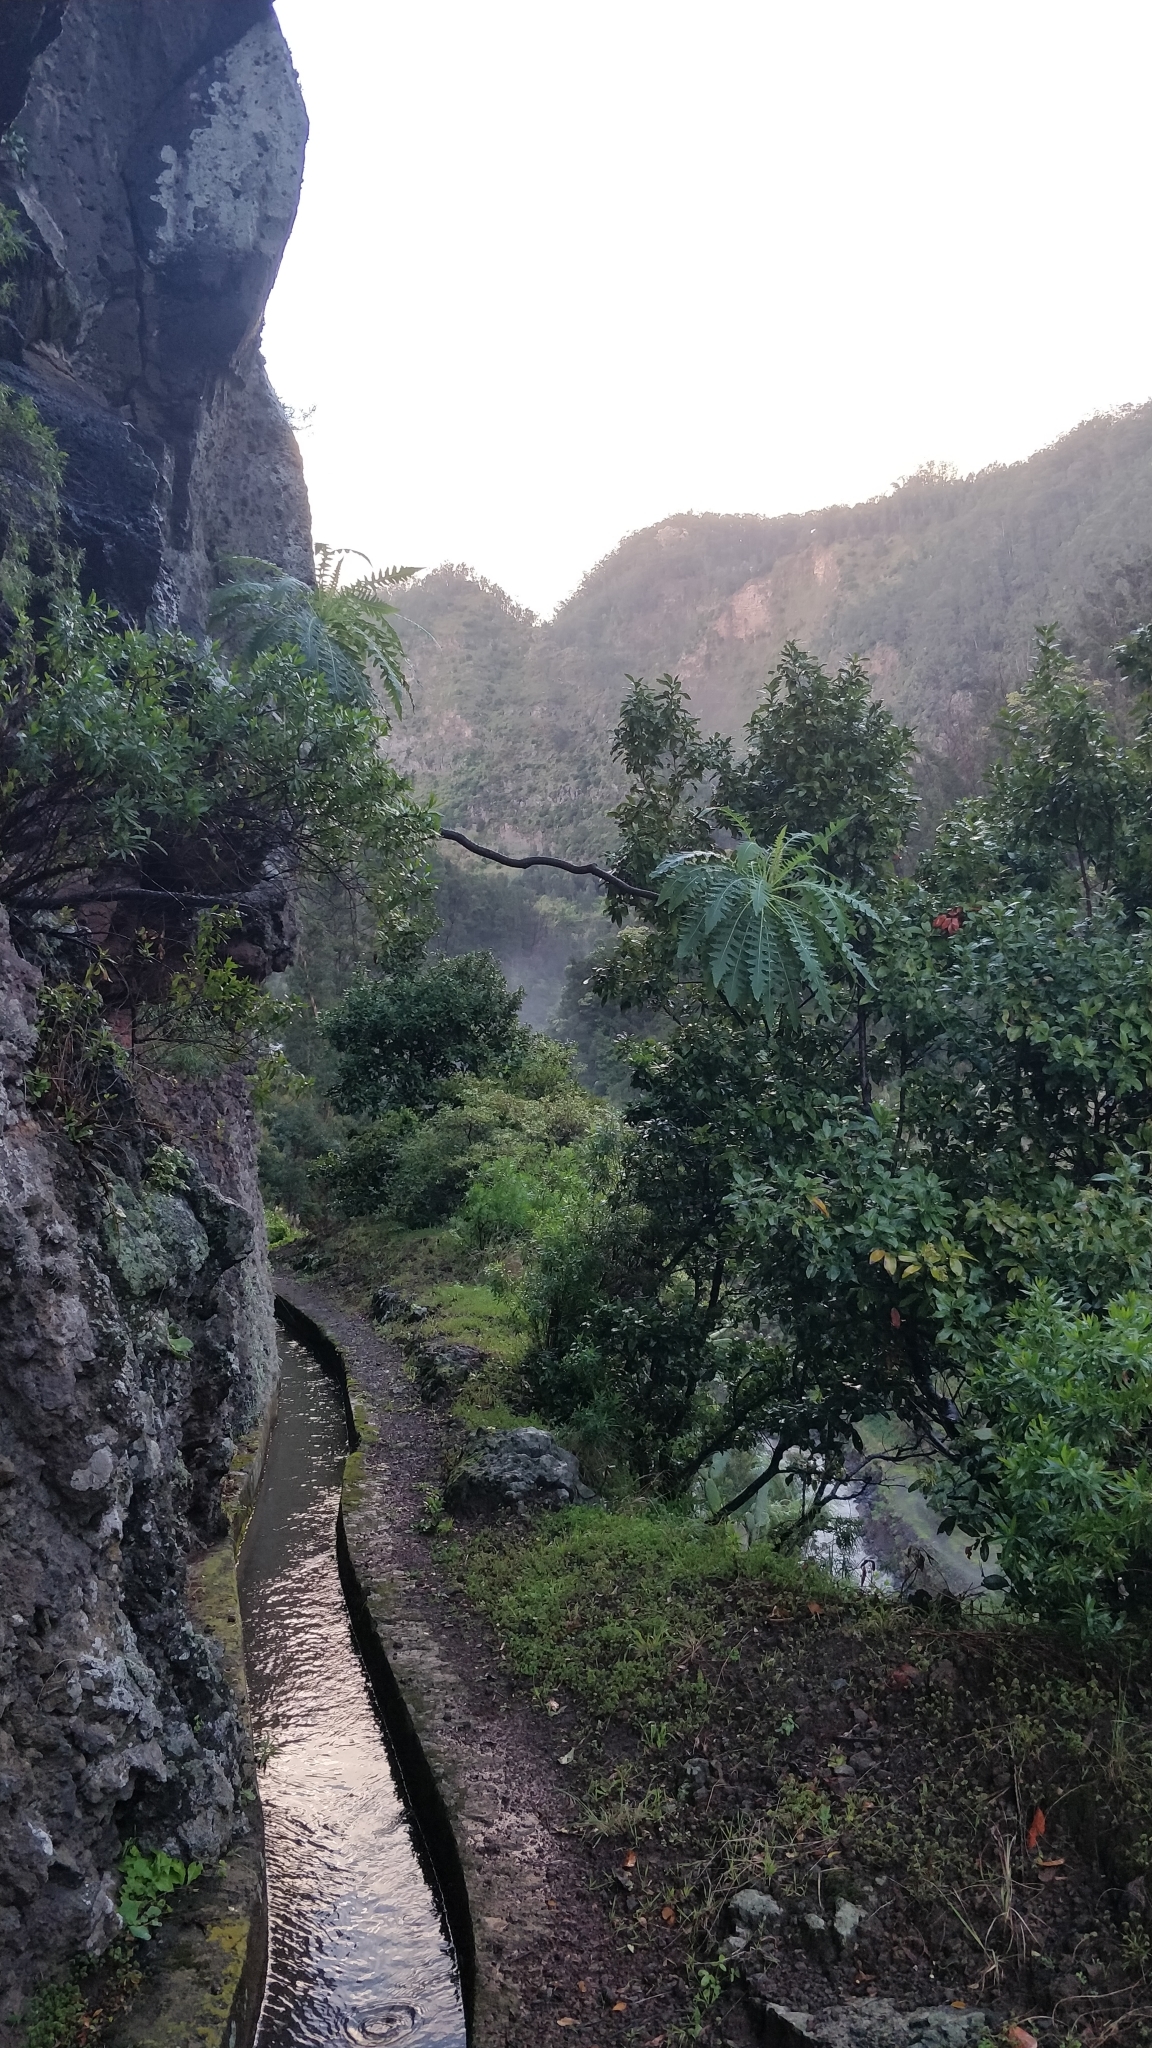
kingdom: Plantae
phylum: Tracheophyta
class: Magnoliopsida
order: Asterales
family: Asteraceae
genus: Sonchus
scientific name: Sonchus pinnatus
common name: Wing-leaved sow-thistle
